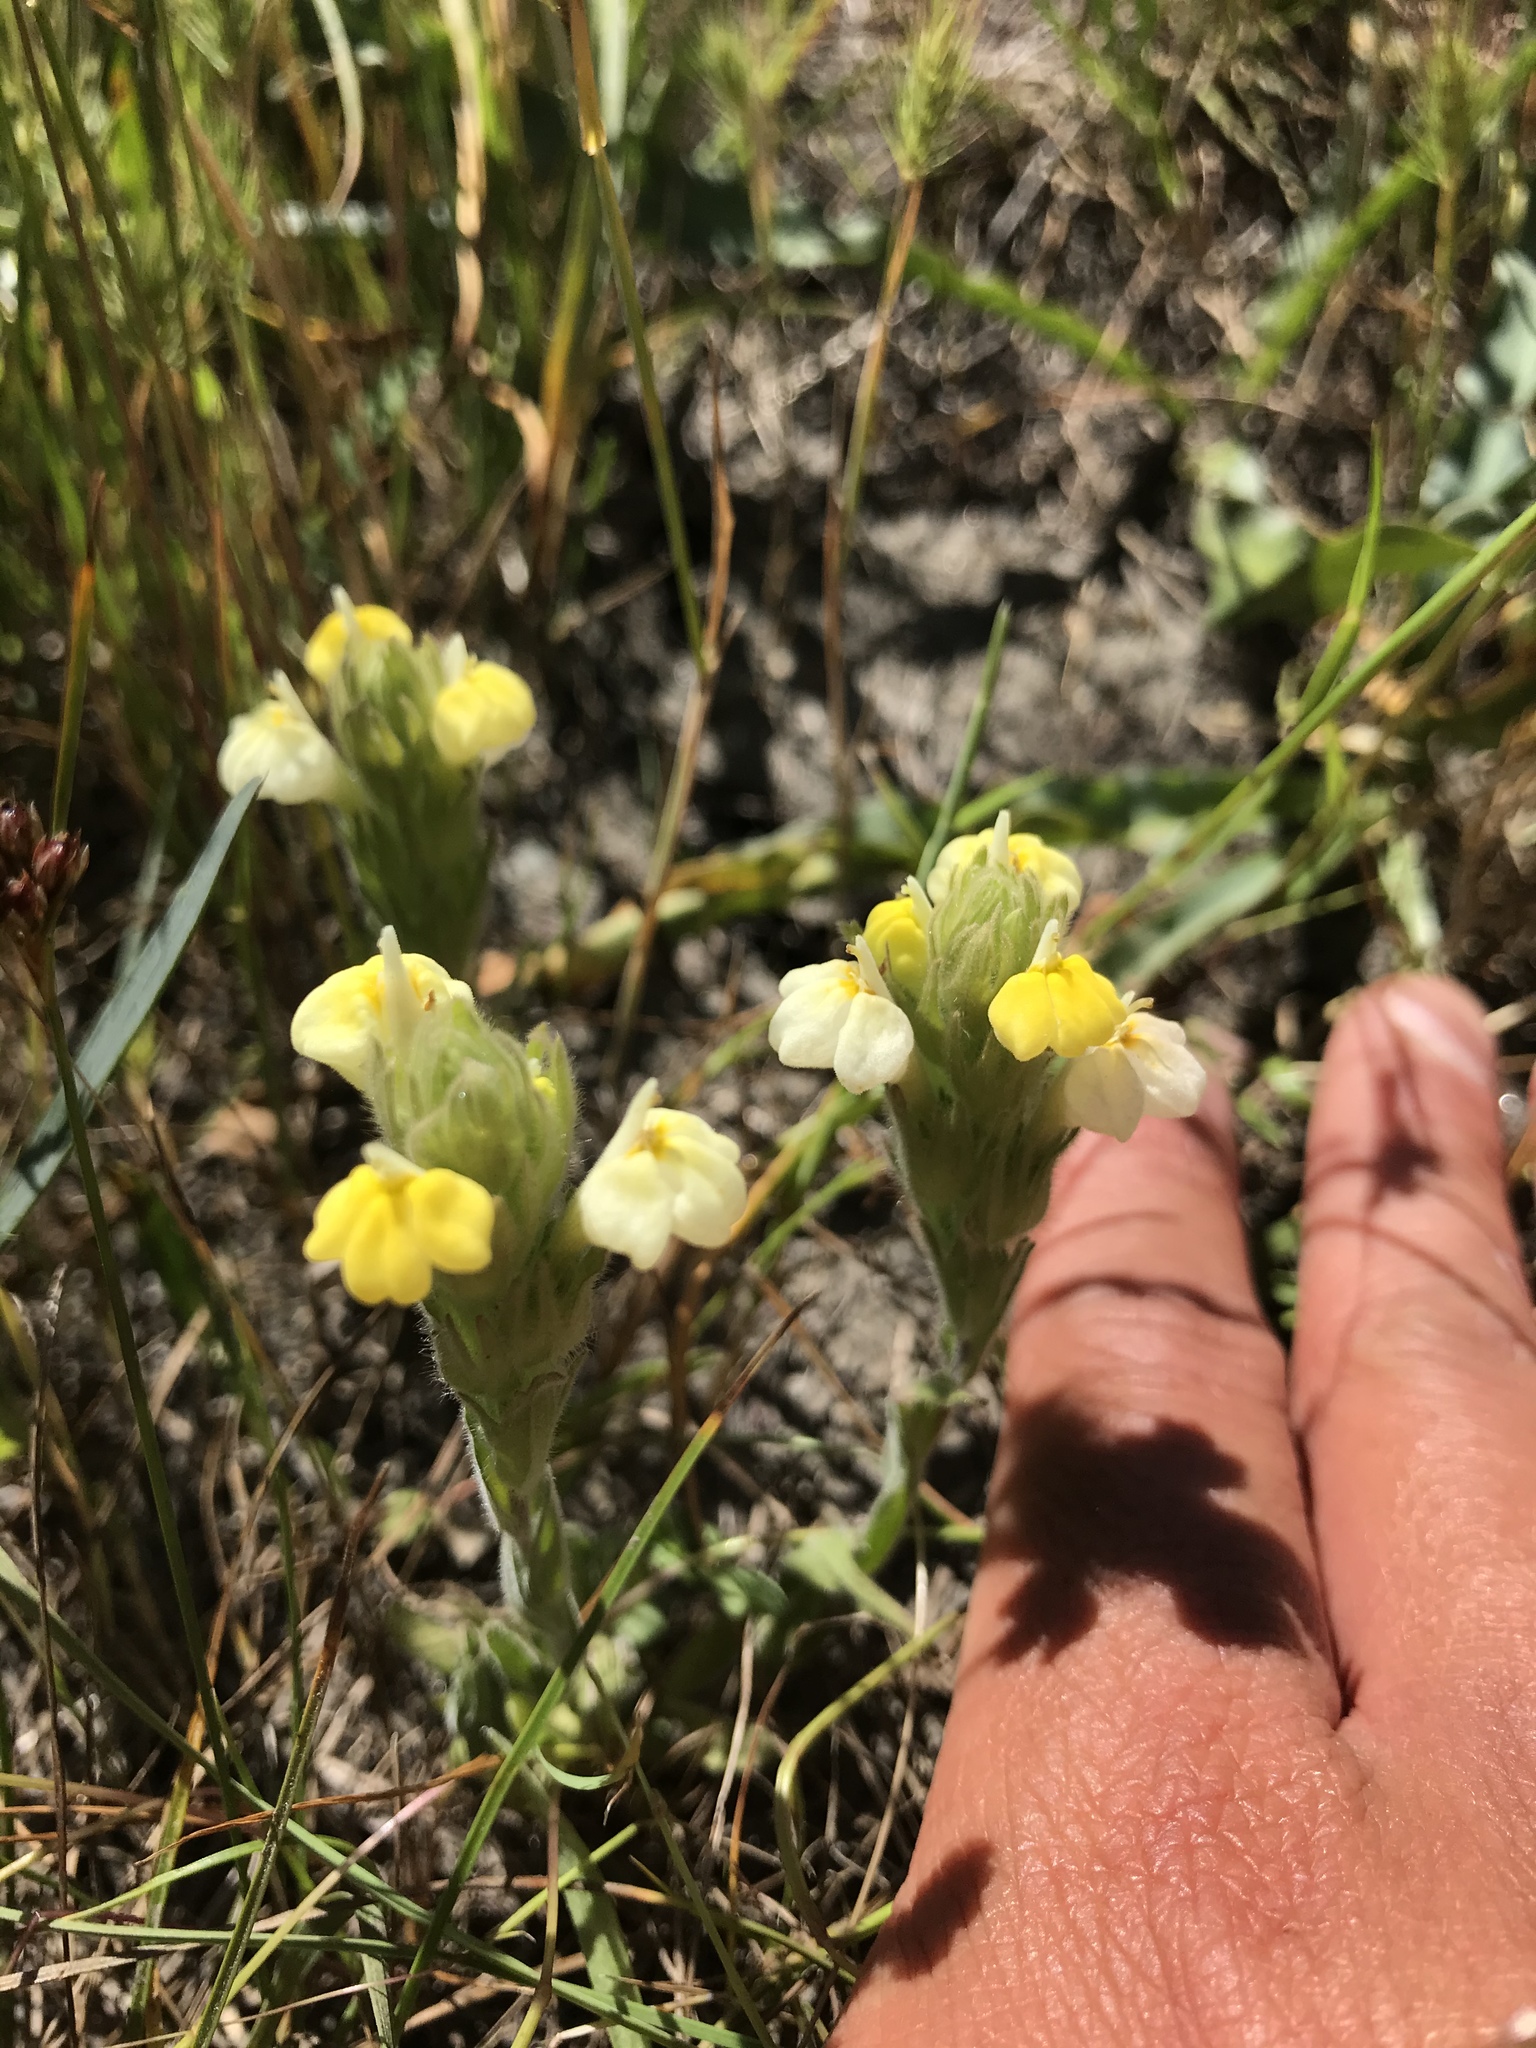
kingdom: Plantae
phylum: Tracheophyta
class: Magnoliopsida
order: Lamiales
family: Orobanchaceae
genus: Castilleja
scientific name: Castilleja rubicundula
